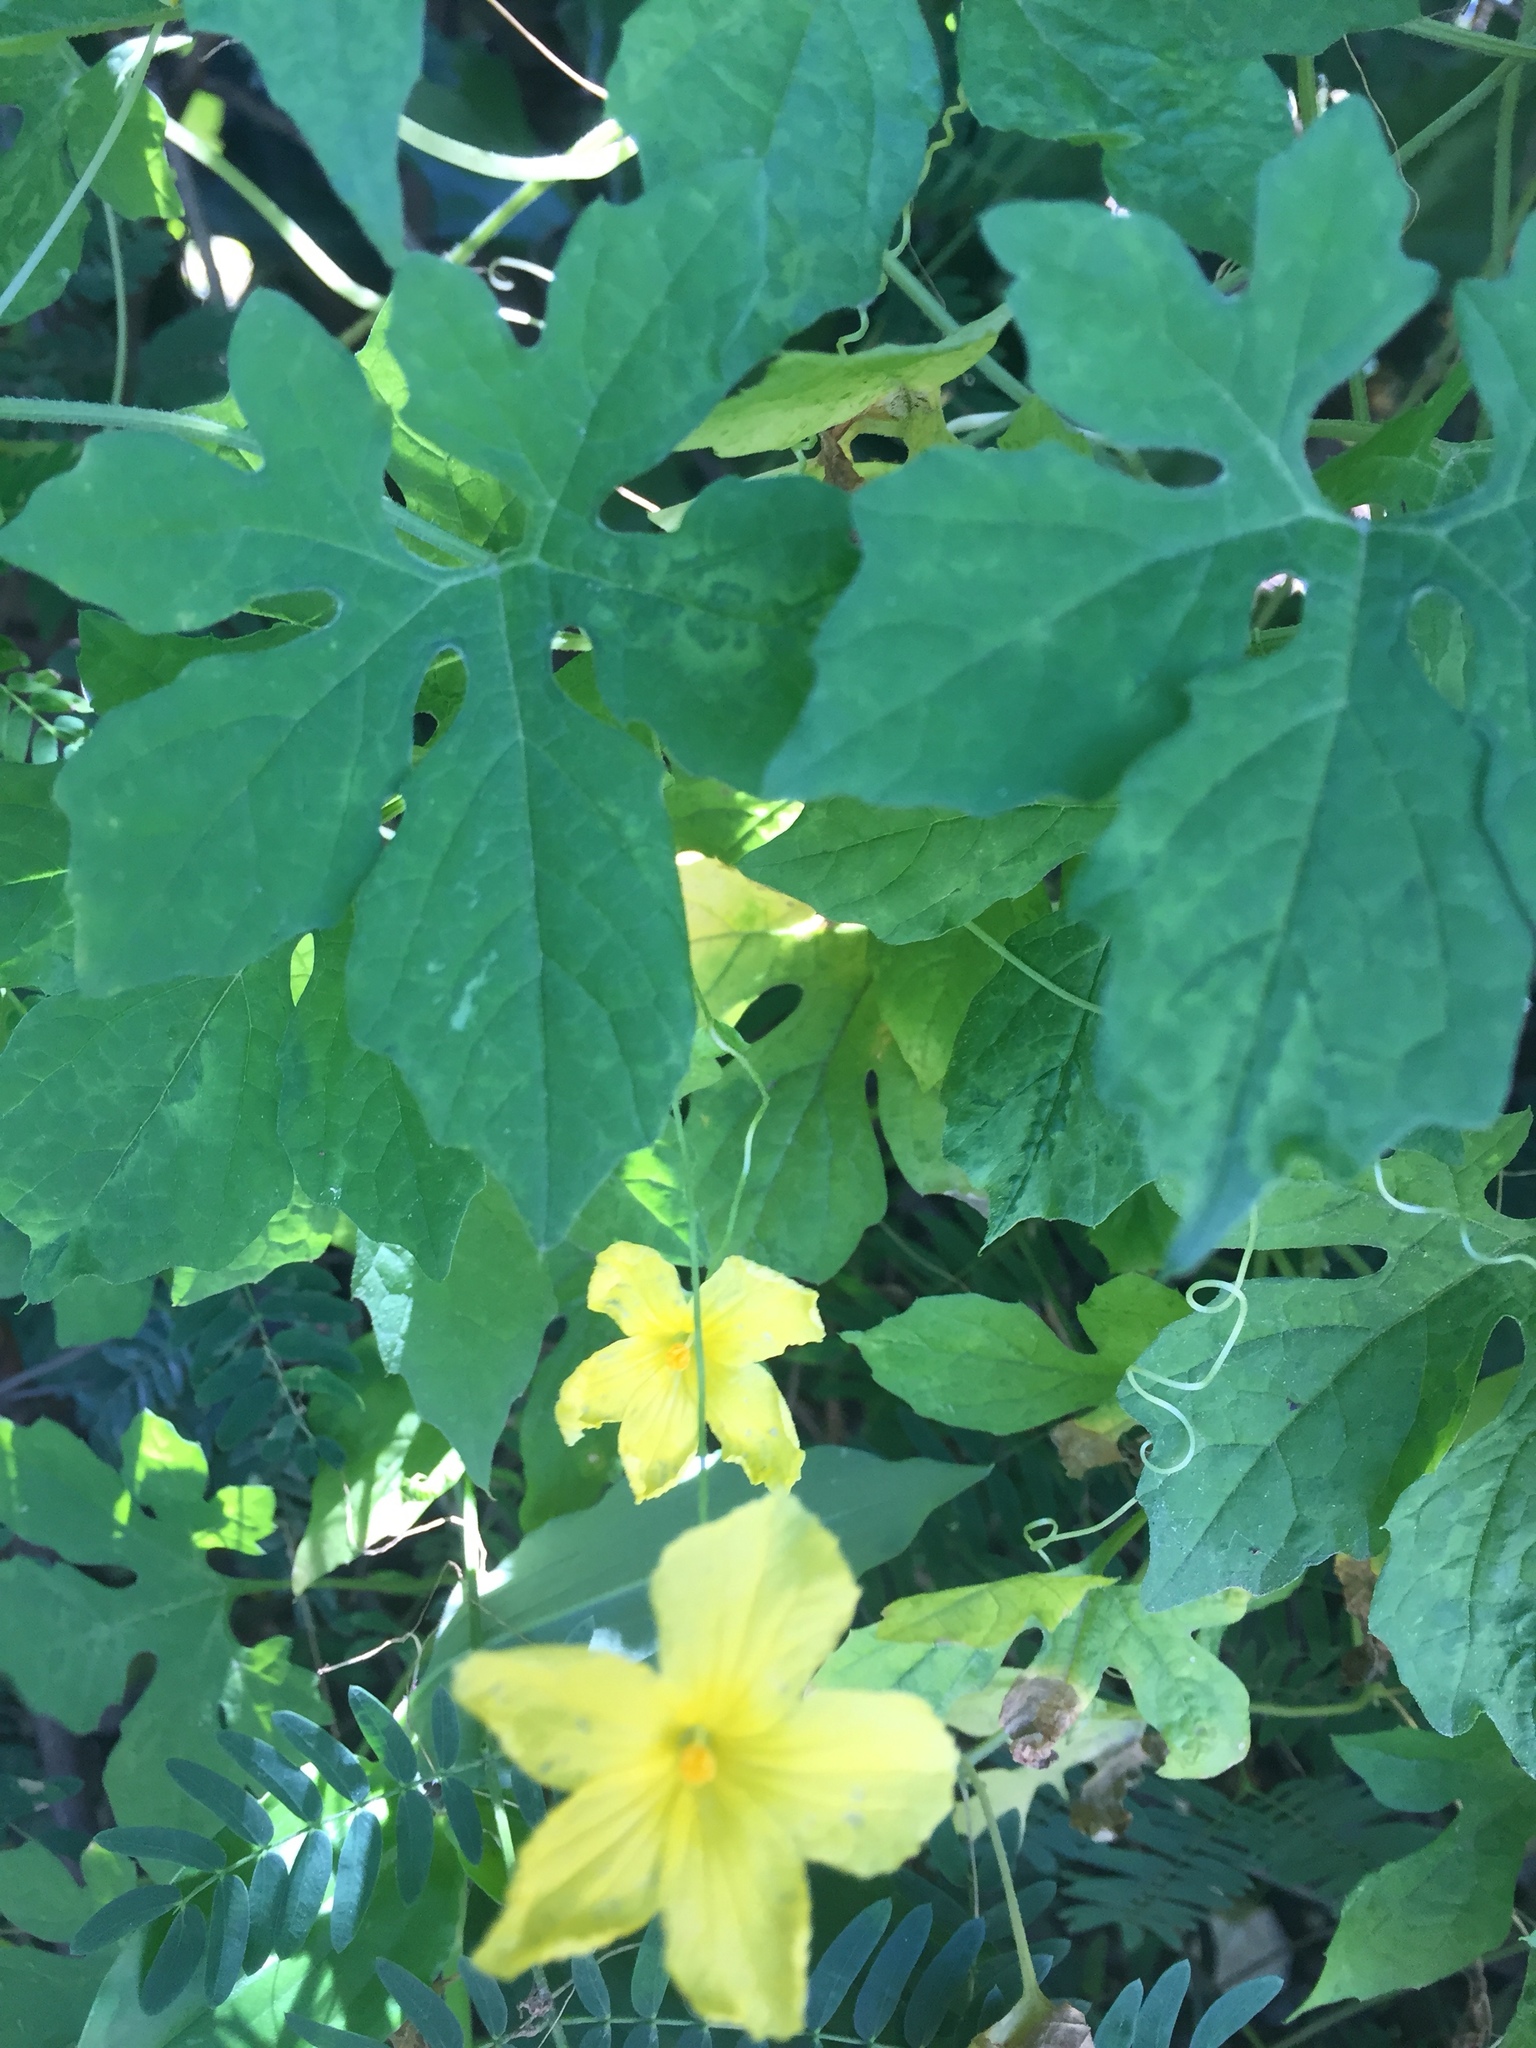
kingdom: Plantae
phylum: Tracheophyta
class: Magnoliopsida
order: Cucurbitales
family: Cucurbitaceae
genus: Momordica
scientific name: Momordica charantia
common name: Balsampear
